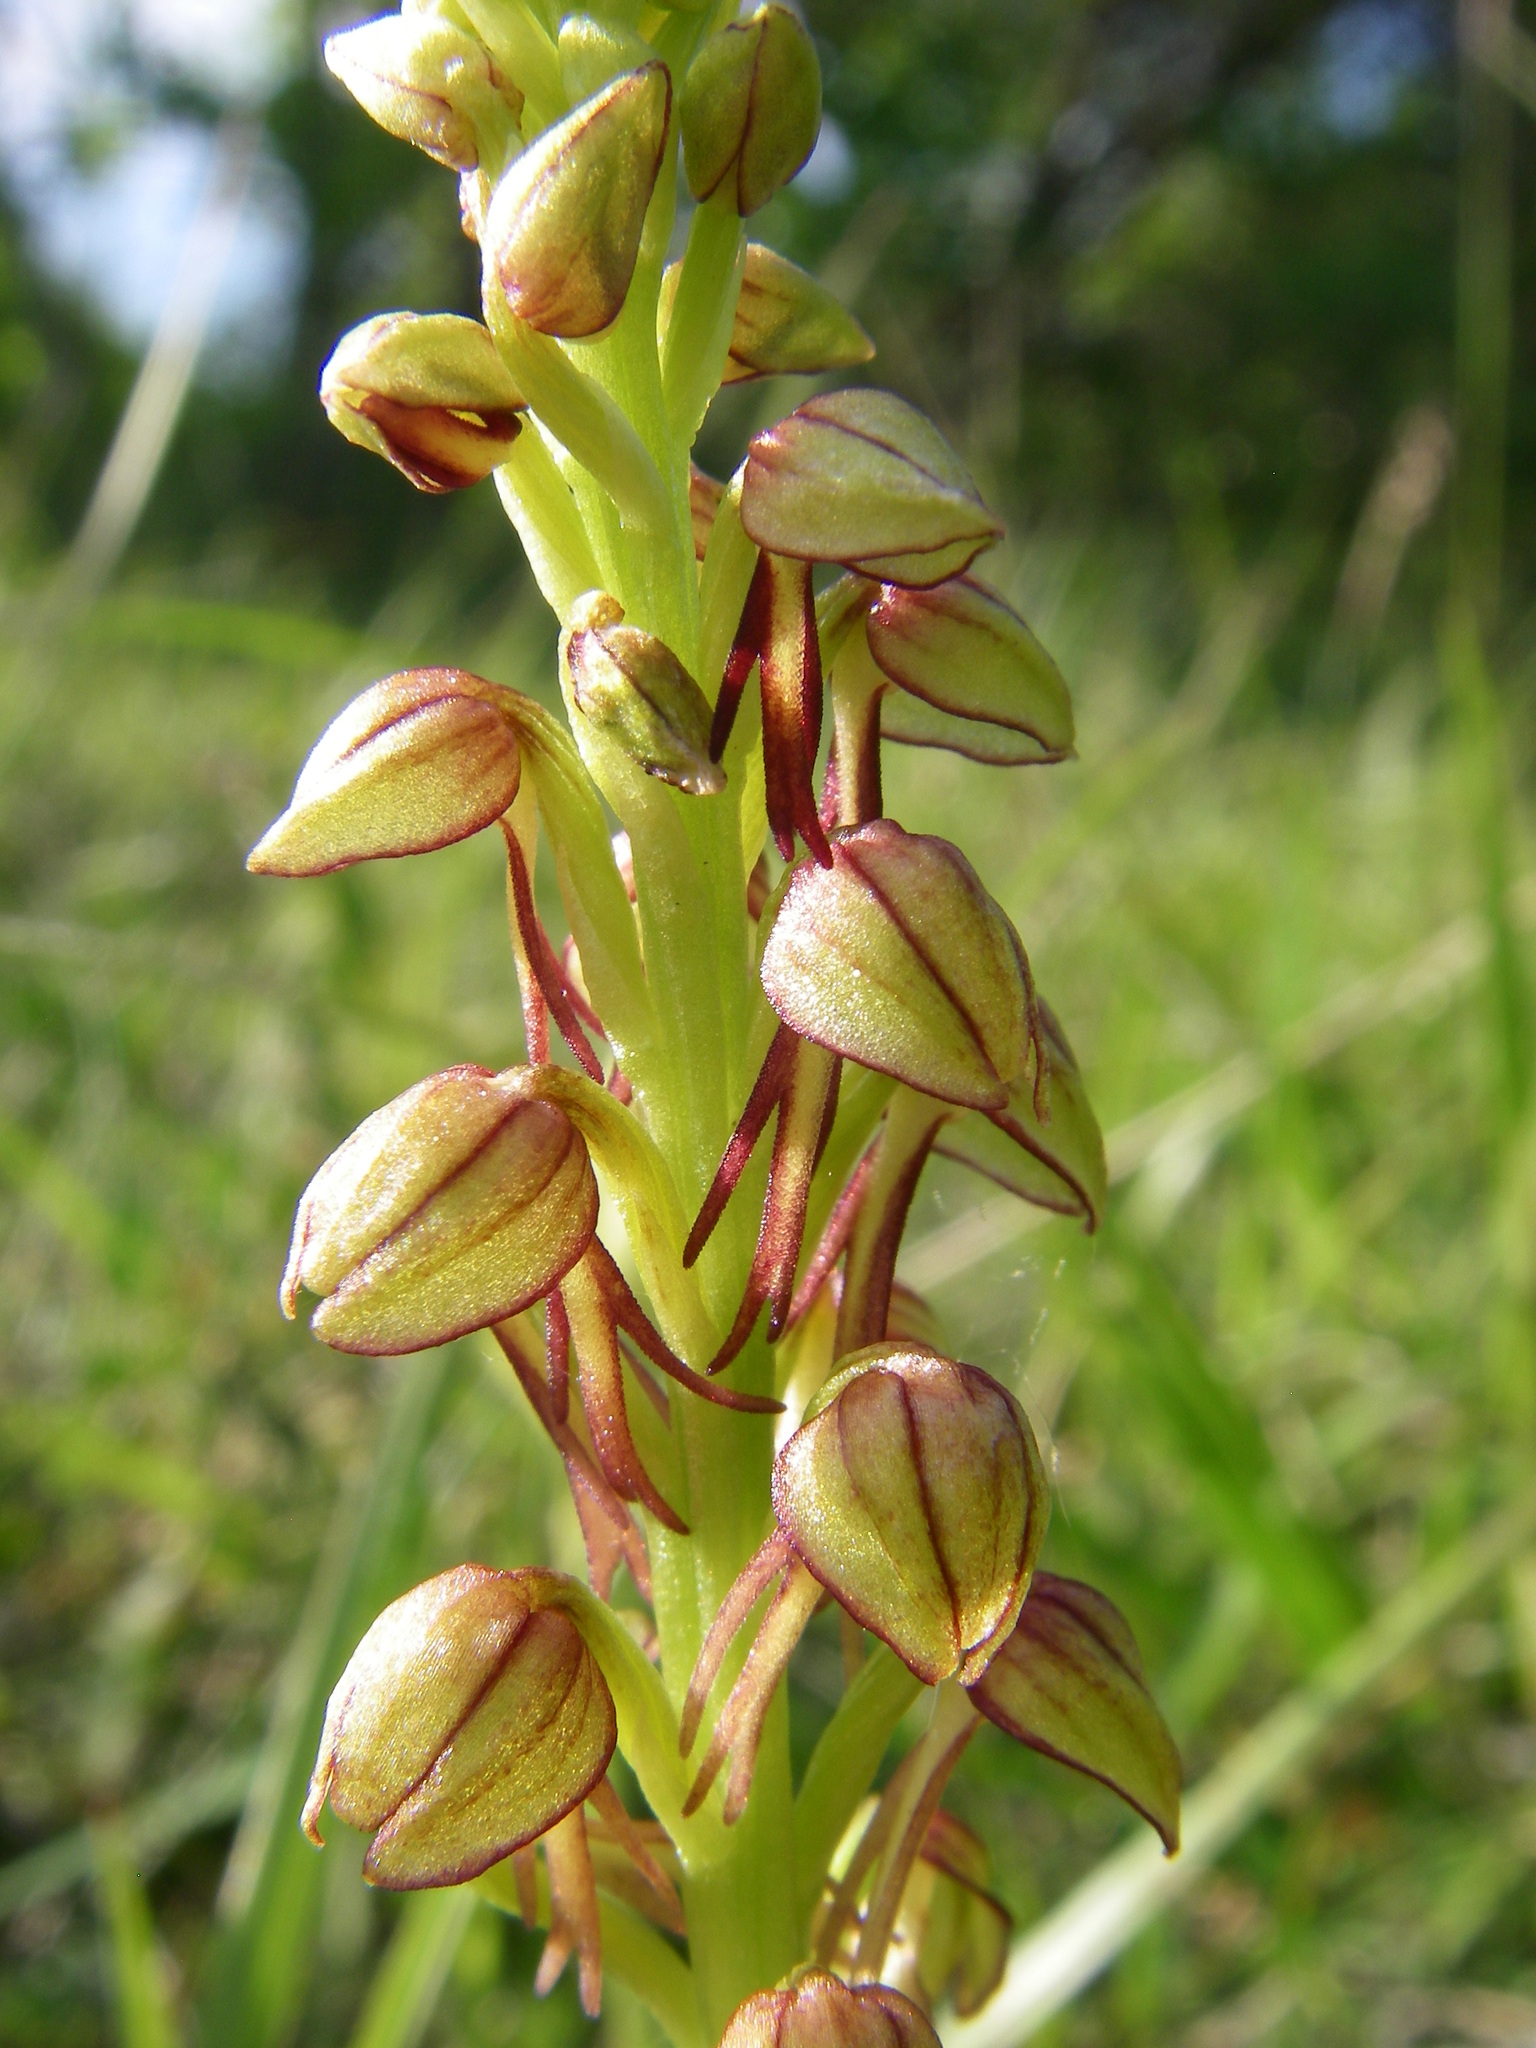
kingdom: Plantae
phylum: Tracheophyta
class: Liliopsida
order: Asparagales
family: Orchidaceae
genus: Orchis
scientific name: Orchis anthropophora
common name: Man orchid
